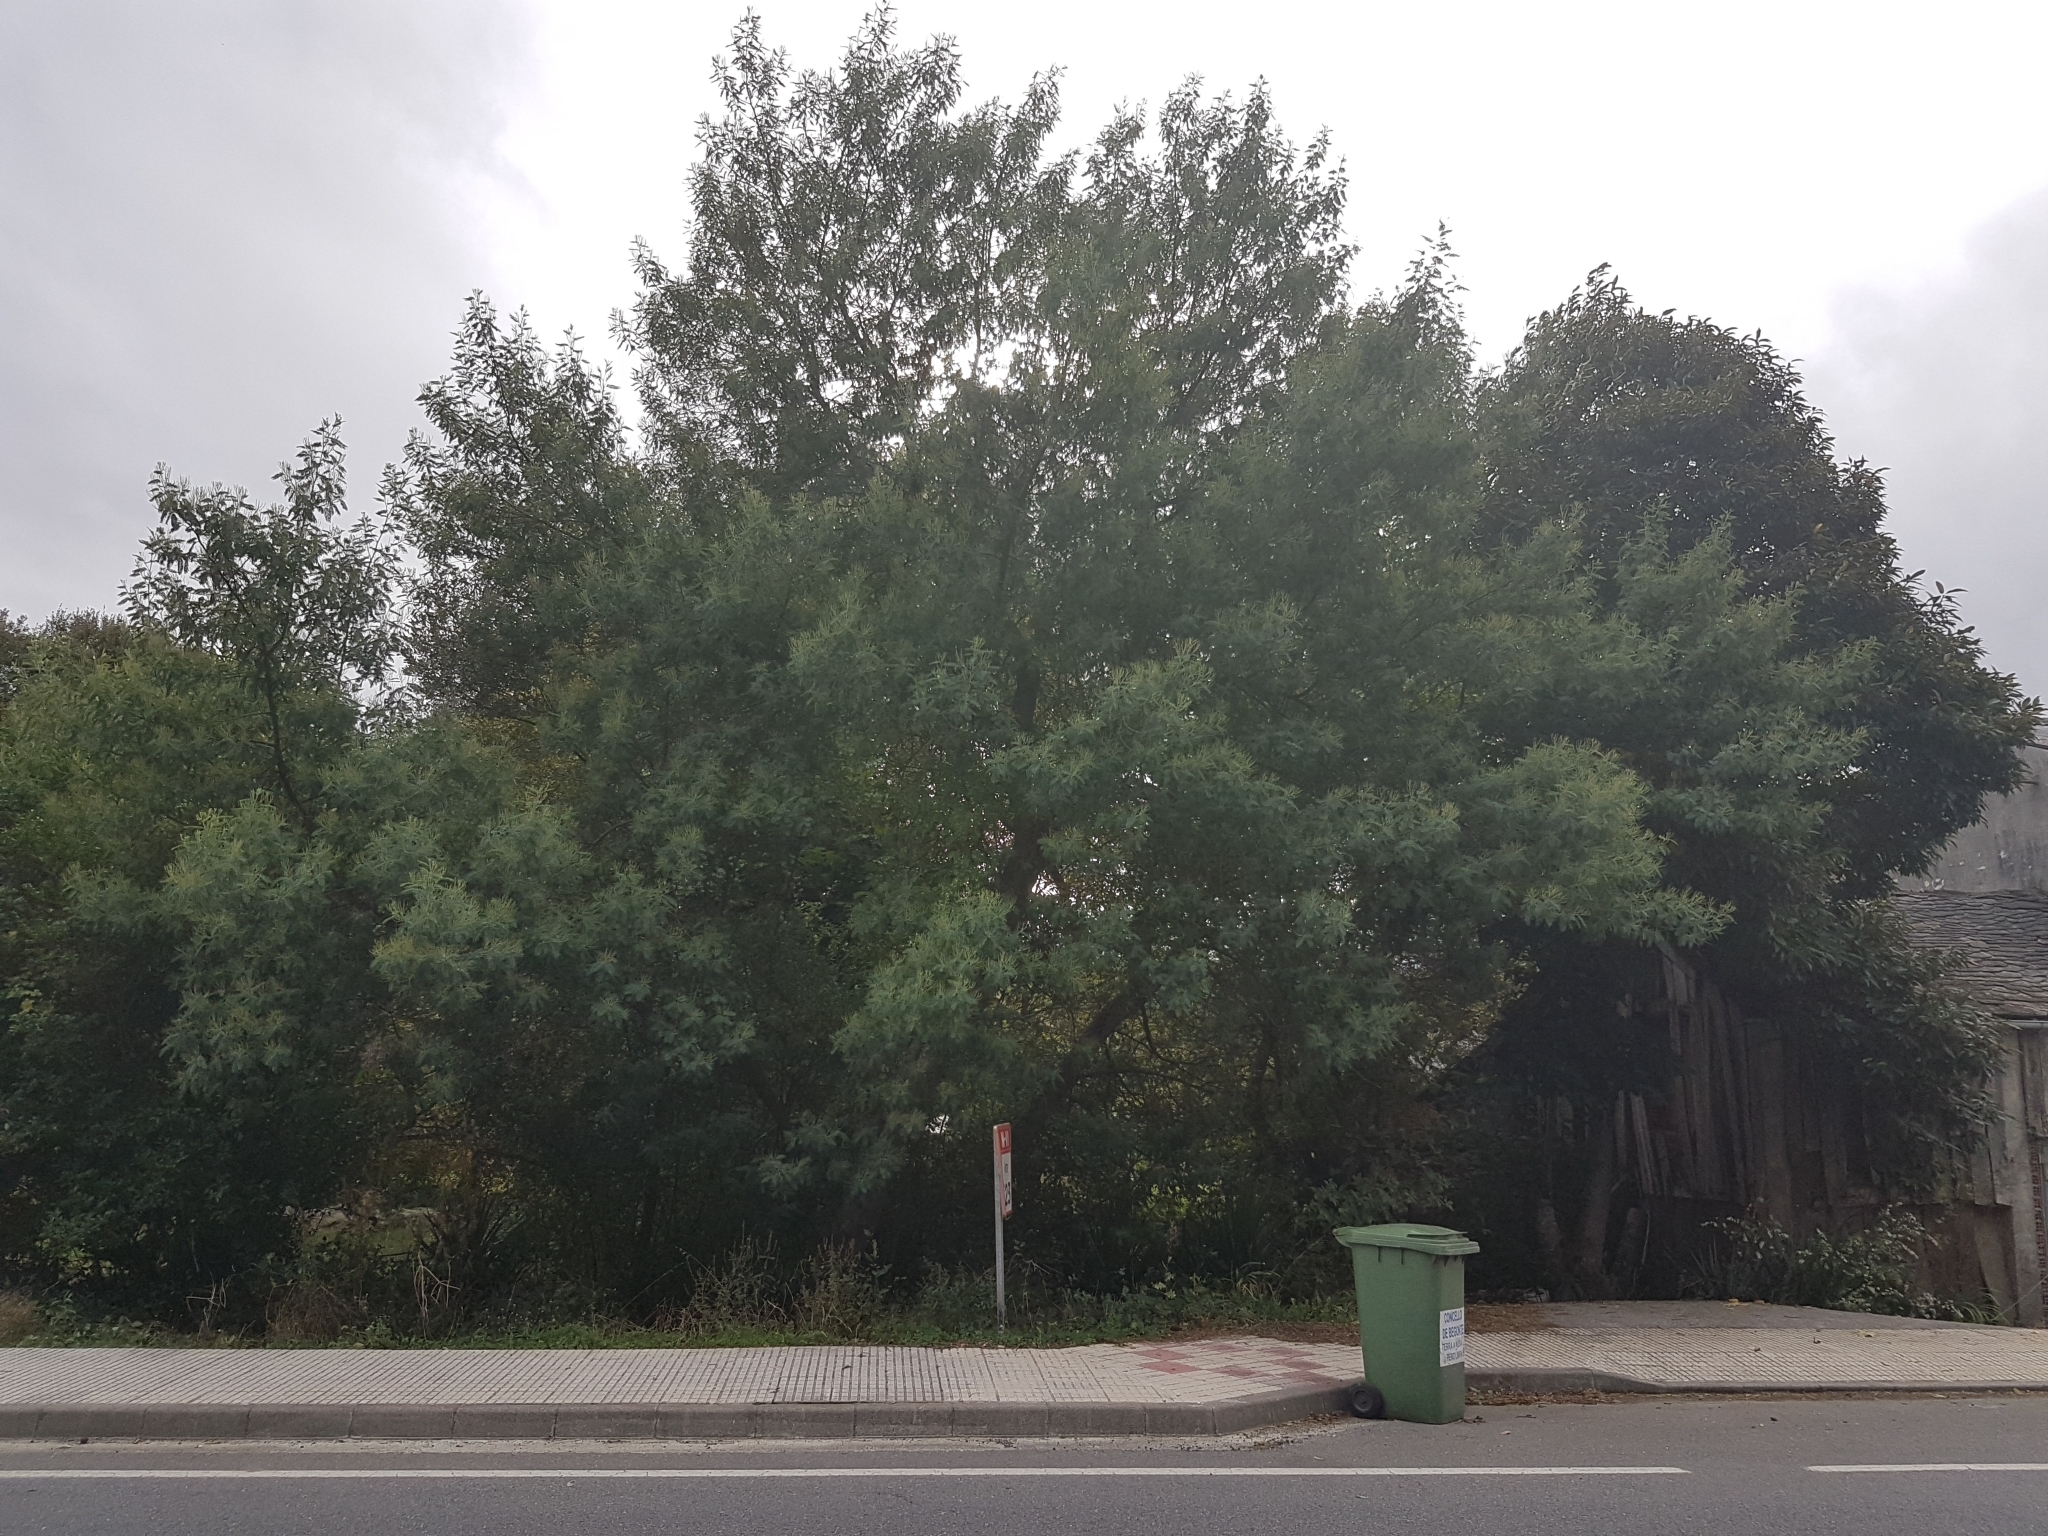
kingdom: Plantae
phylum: Tracheophyta
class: Magnoliopsida
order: Fabales
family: Fabaceae
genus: Acacia
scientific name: Acacia dealbata
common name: Silver wattle
